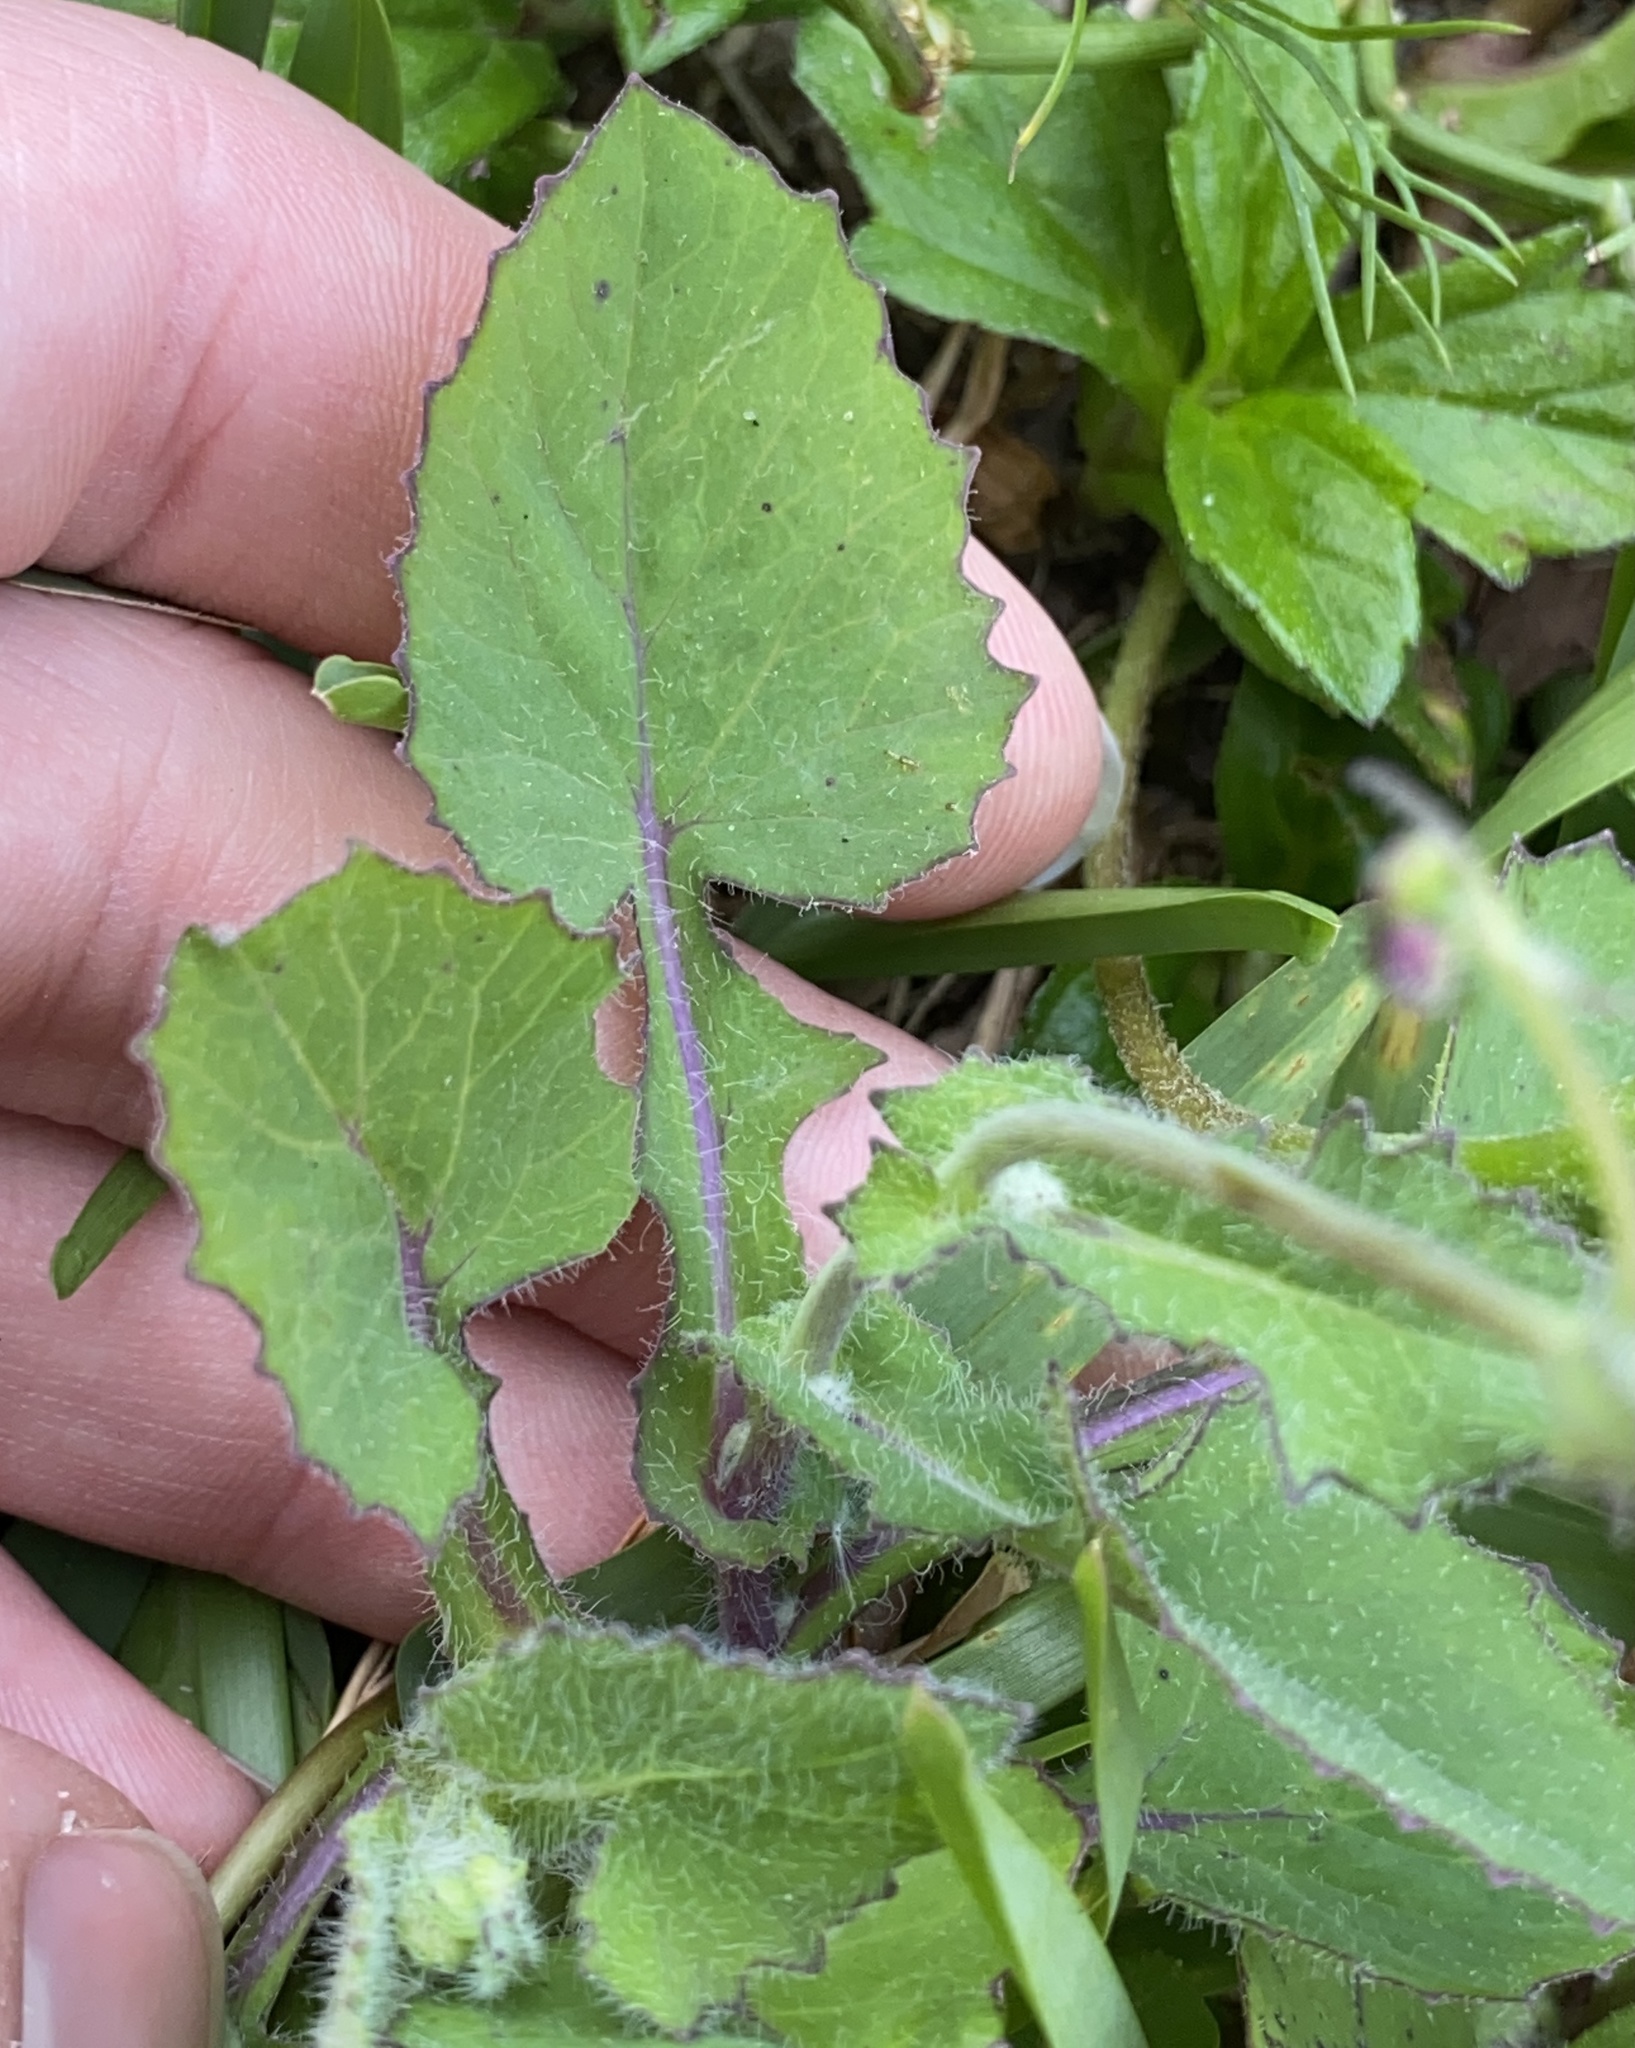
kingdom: Plantae
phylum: Tracheophyta
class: Magnoliopsida
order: Asterales
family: Asteraceae
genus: Emilia
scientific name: Emilia sonchifolia
